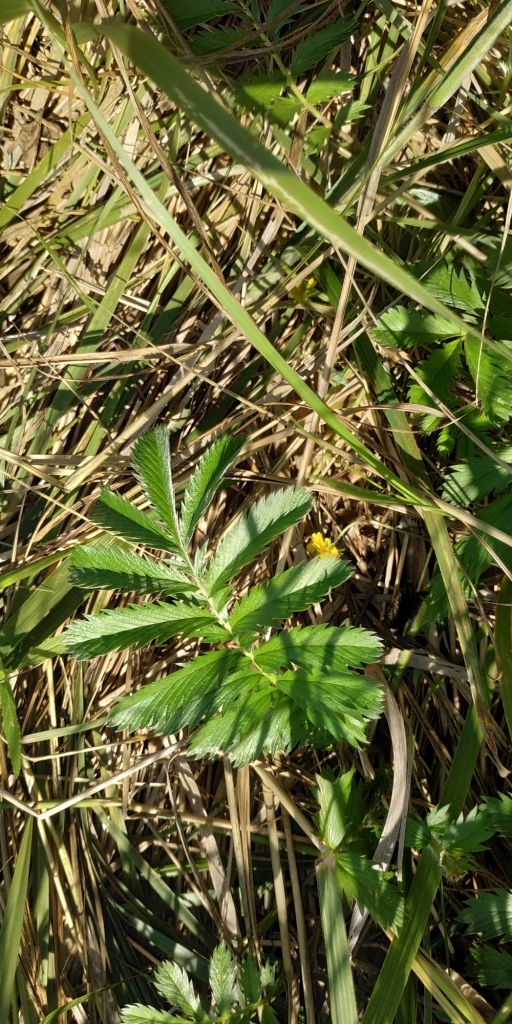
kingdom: Plantae
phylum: Tracheophyta
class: Magnoliopsida
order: Rosales
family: Rosaceae
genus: Argentina
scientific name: Argentina anserina
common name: Common silverweed
